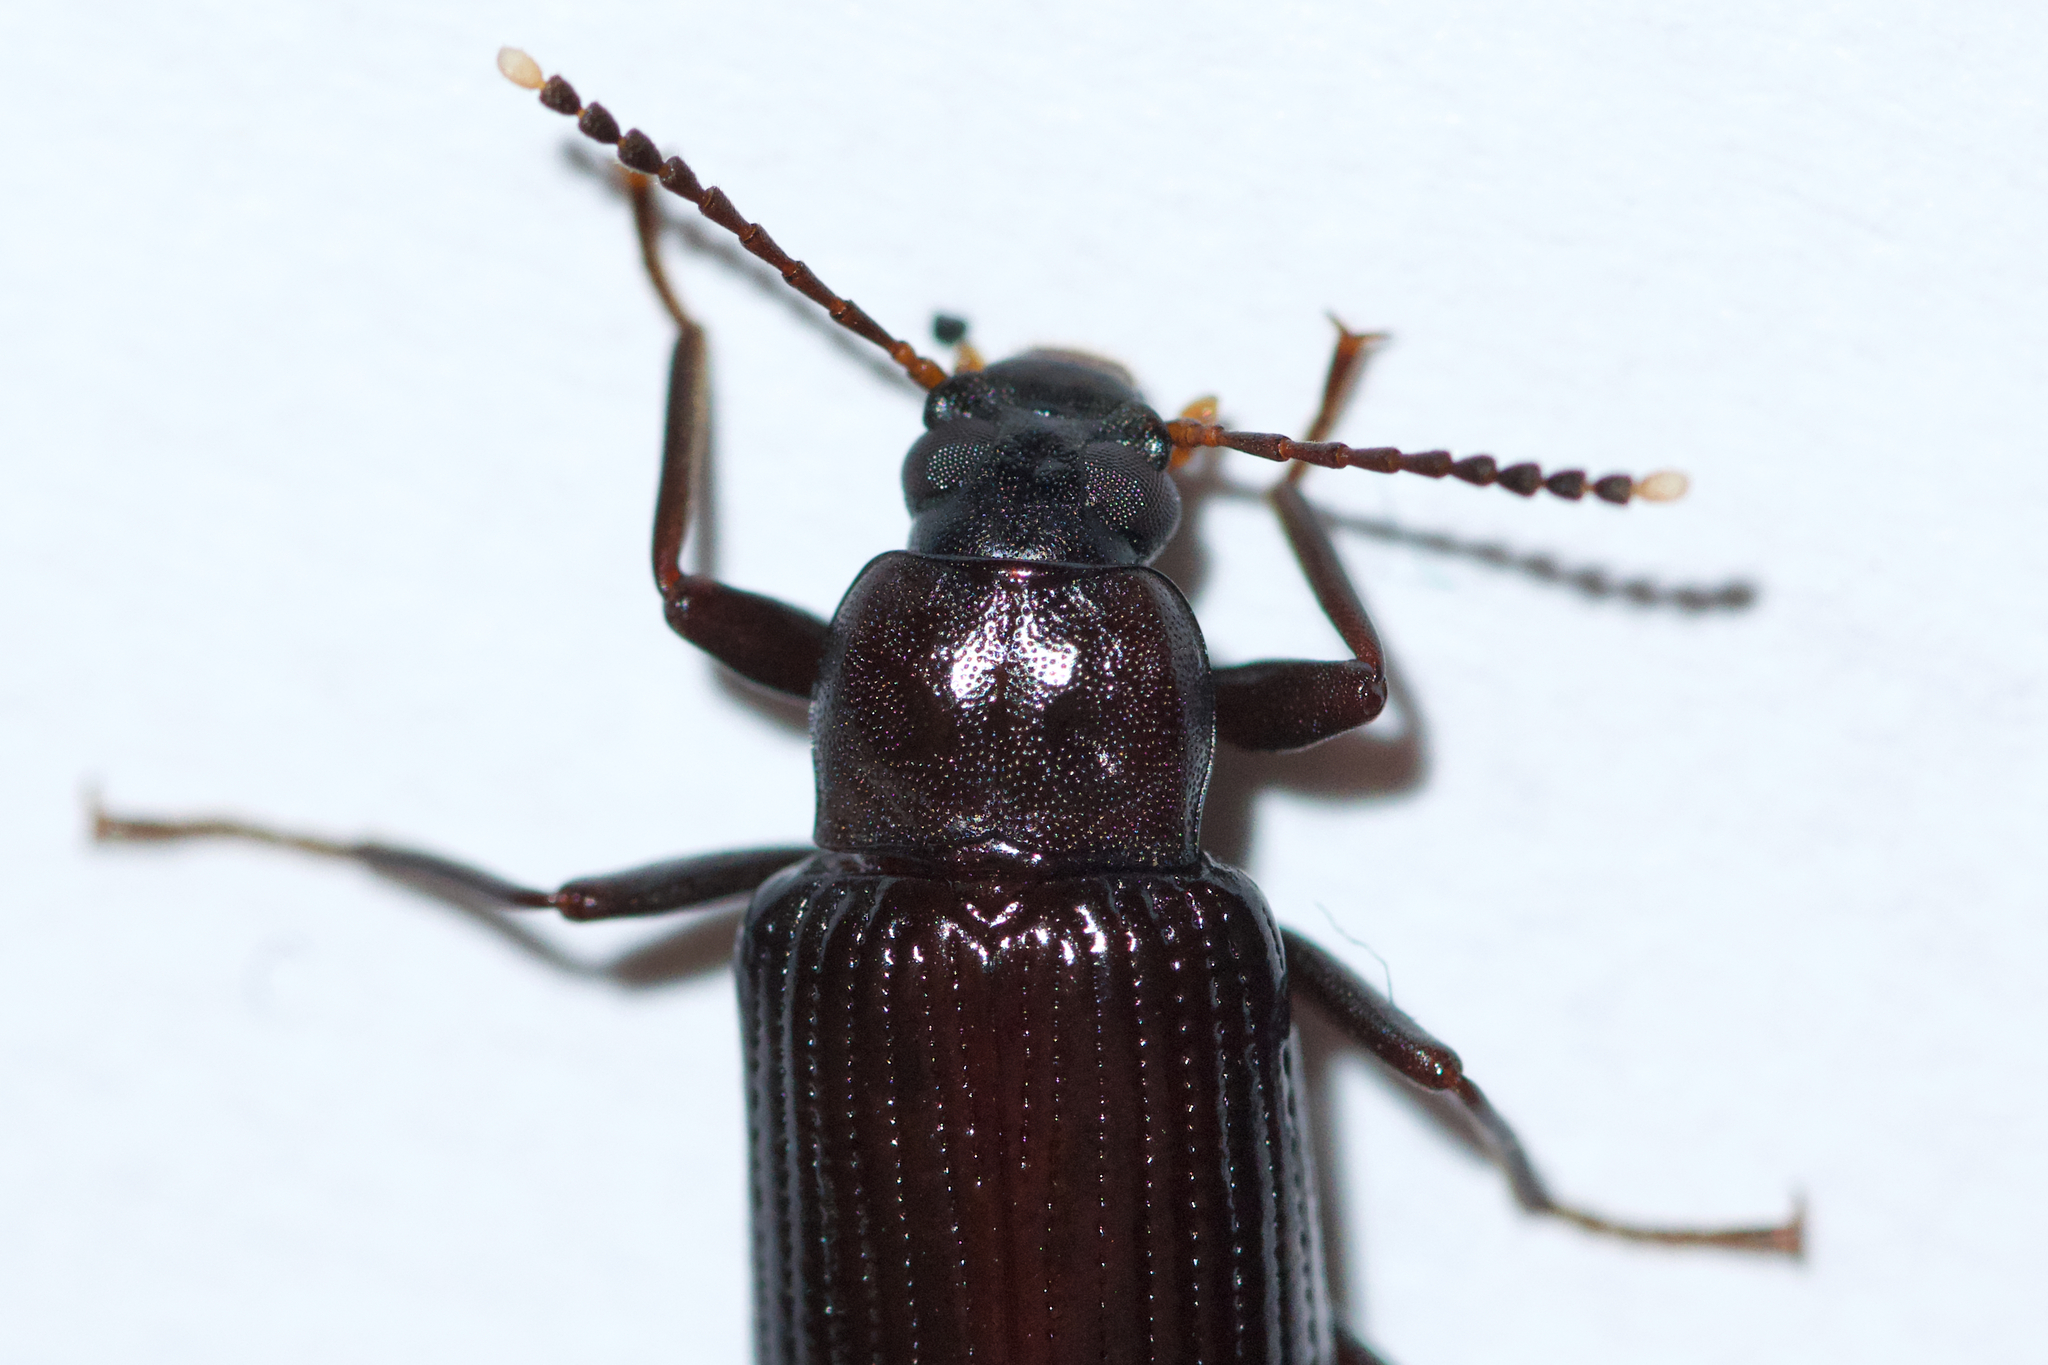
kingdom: Animalia
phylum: Arthropoda
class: Insecta
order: Coleoptera
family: Tenebrionidae
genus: Strongylium
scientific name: Strongylium terminatum
